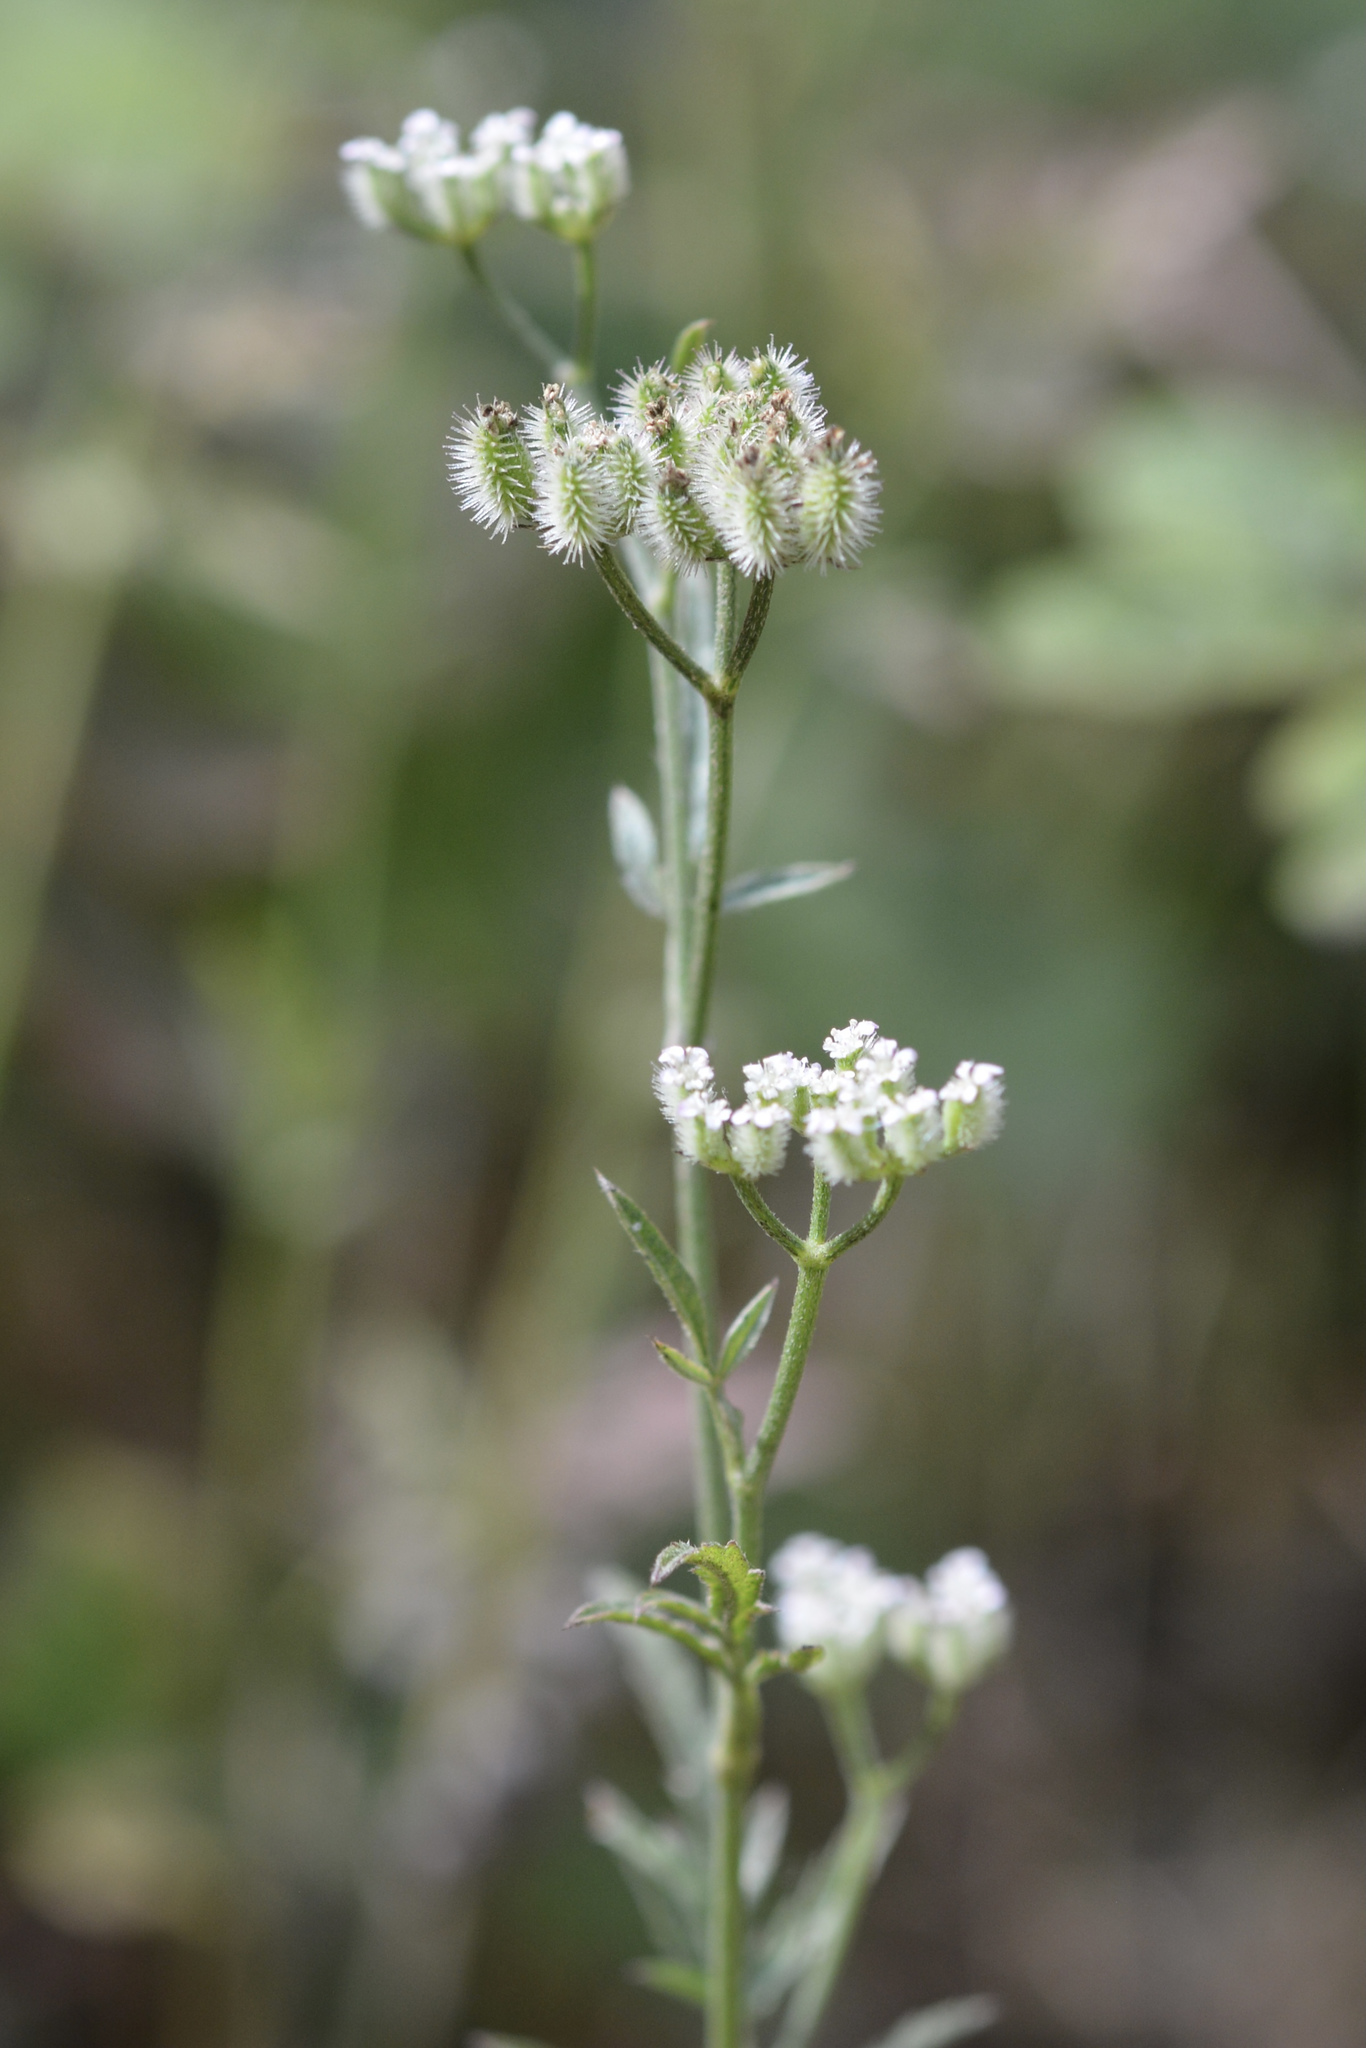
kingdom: Plantae
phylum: Tracheophyta
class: Magnoliopsida
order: Apiales
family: Apiaceae
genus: Torilis
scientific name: Torilis arvensis
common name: Spreading hedge-parsley
